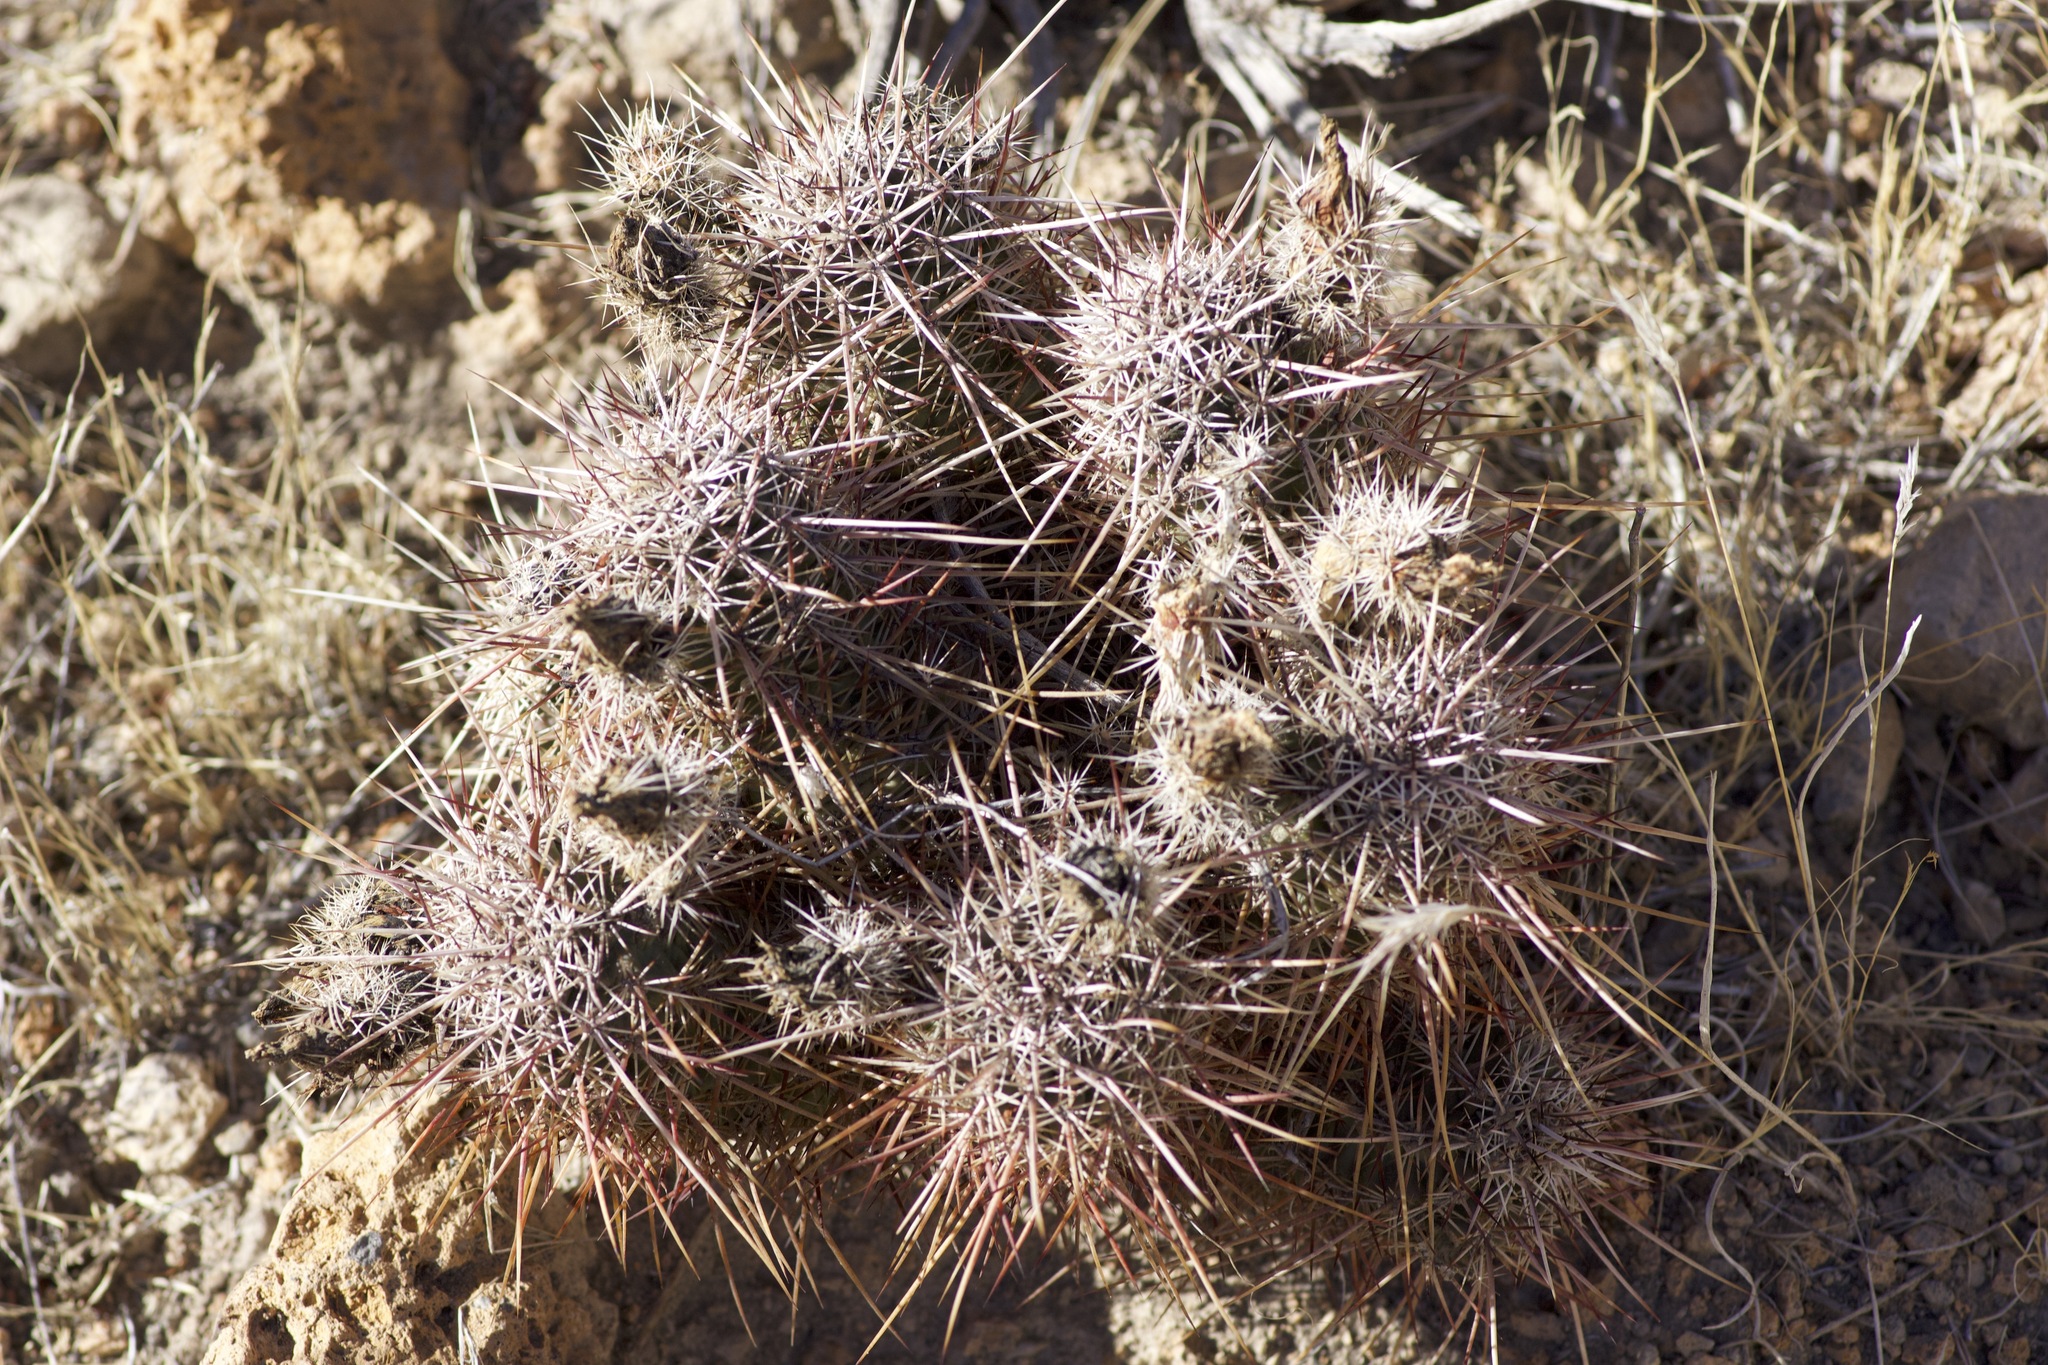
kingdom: Plantae
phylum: Tracheophyta
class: Magnoliopsida
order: Caryophyllales
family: Cactaceae
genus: Echinocereus
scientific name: Echinocereus engelmannii
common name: Engelmann's hedgehog cactus
